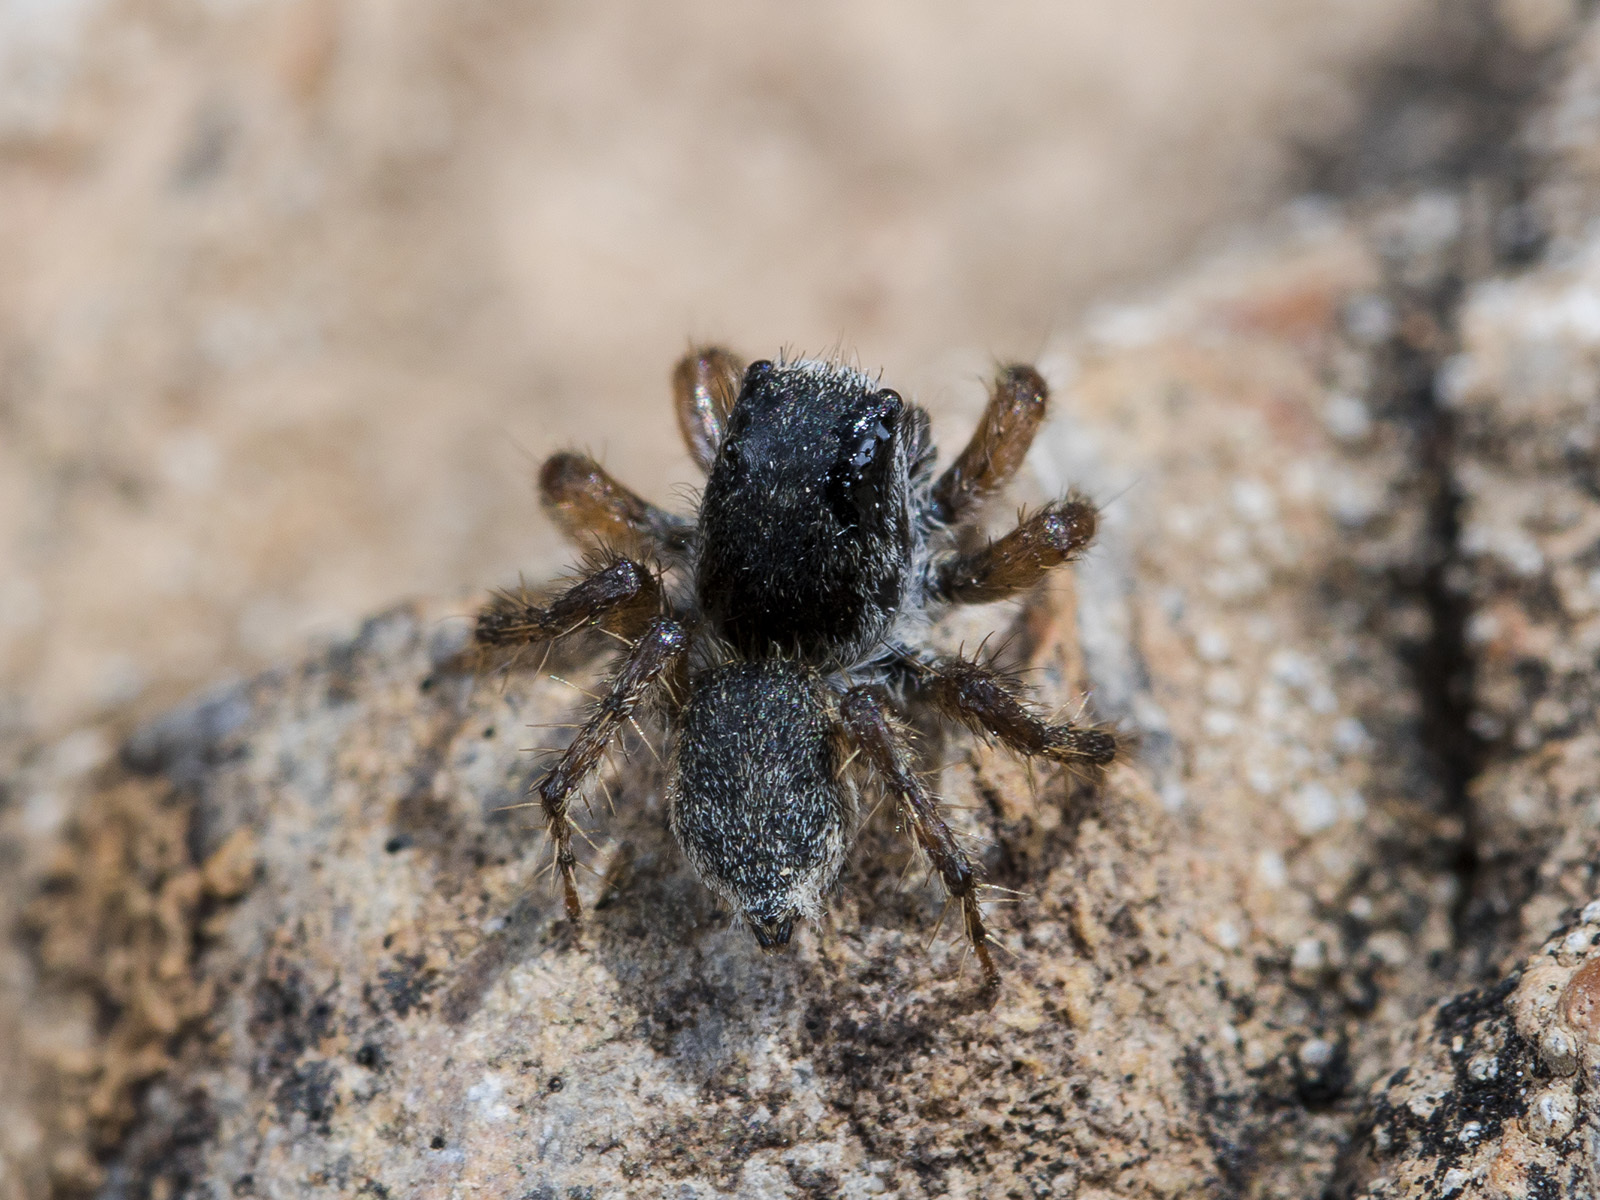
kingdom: Animalia
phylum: Arthropoda
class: Arachnida
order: Araneae
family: Salticidae
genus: Aelurillus
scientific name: Aelurillus dubatolovi
